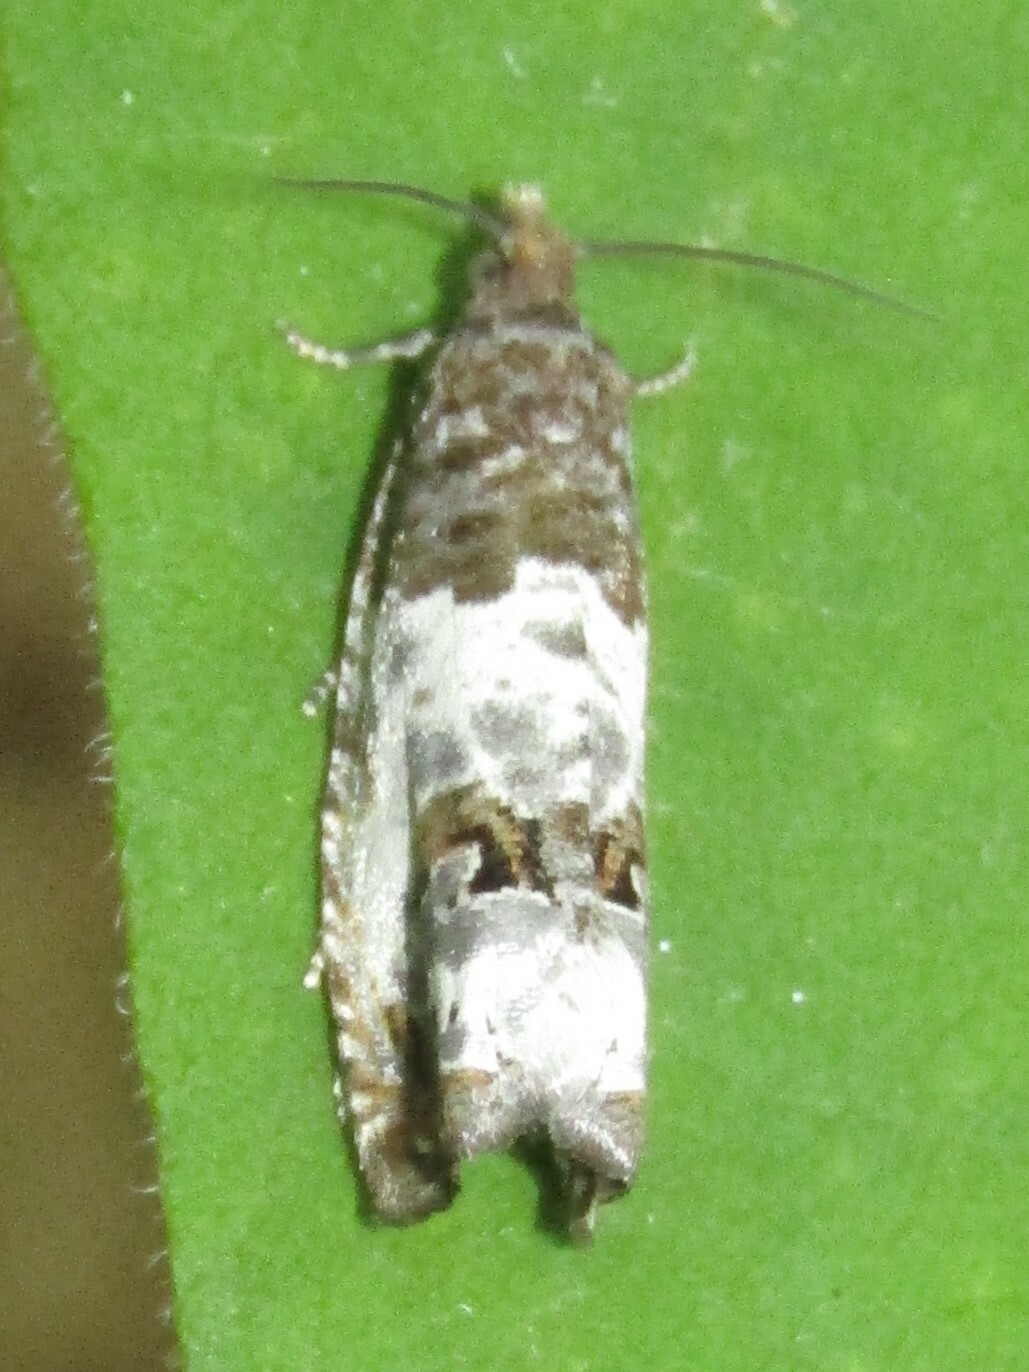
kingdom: Animalia
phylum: Arthropoda
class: Insecta
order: Lepidoptera
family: Tortricidae
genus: Notocelia
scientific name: Notocelia rosaecolana
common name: Common rose bell
